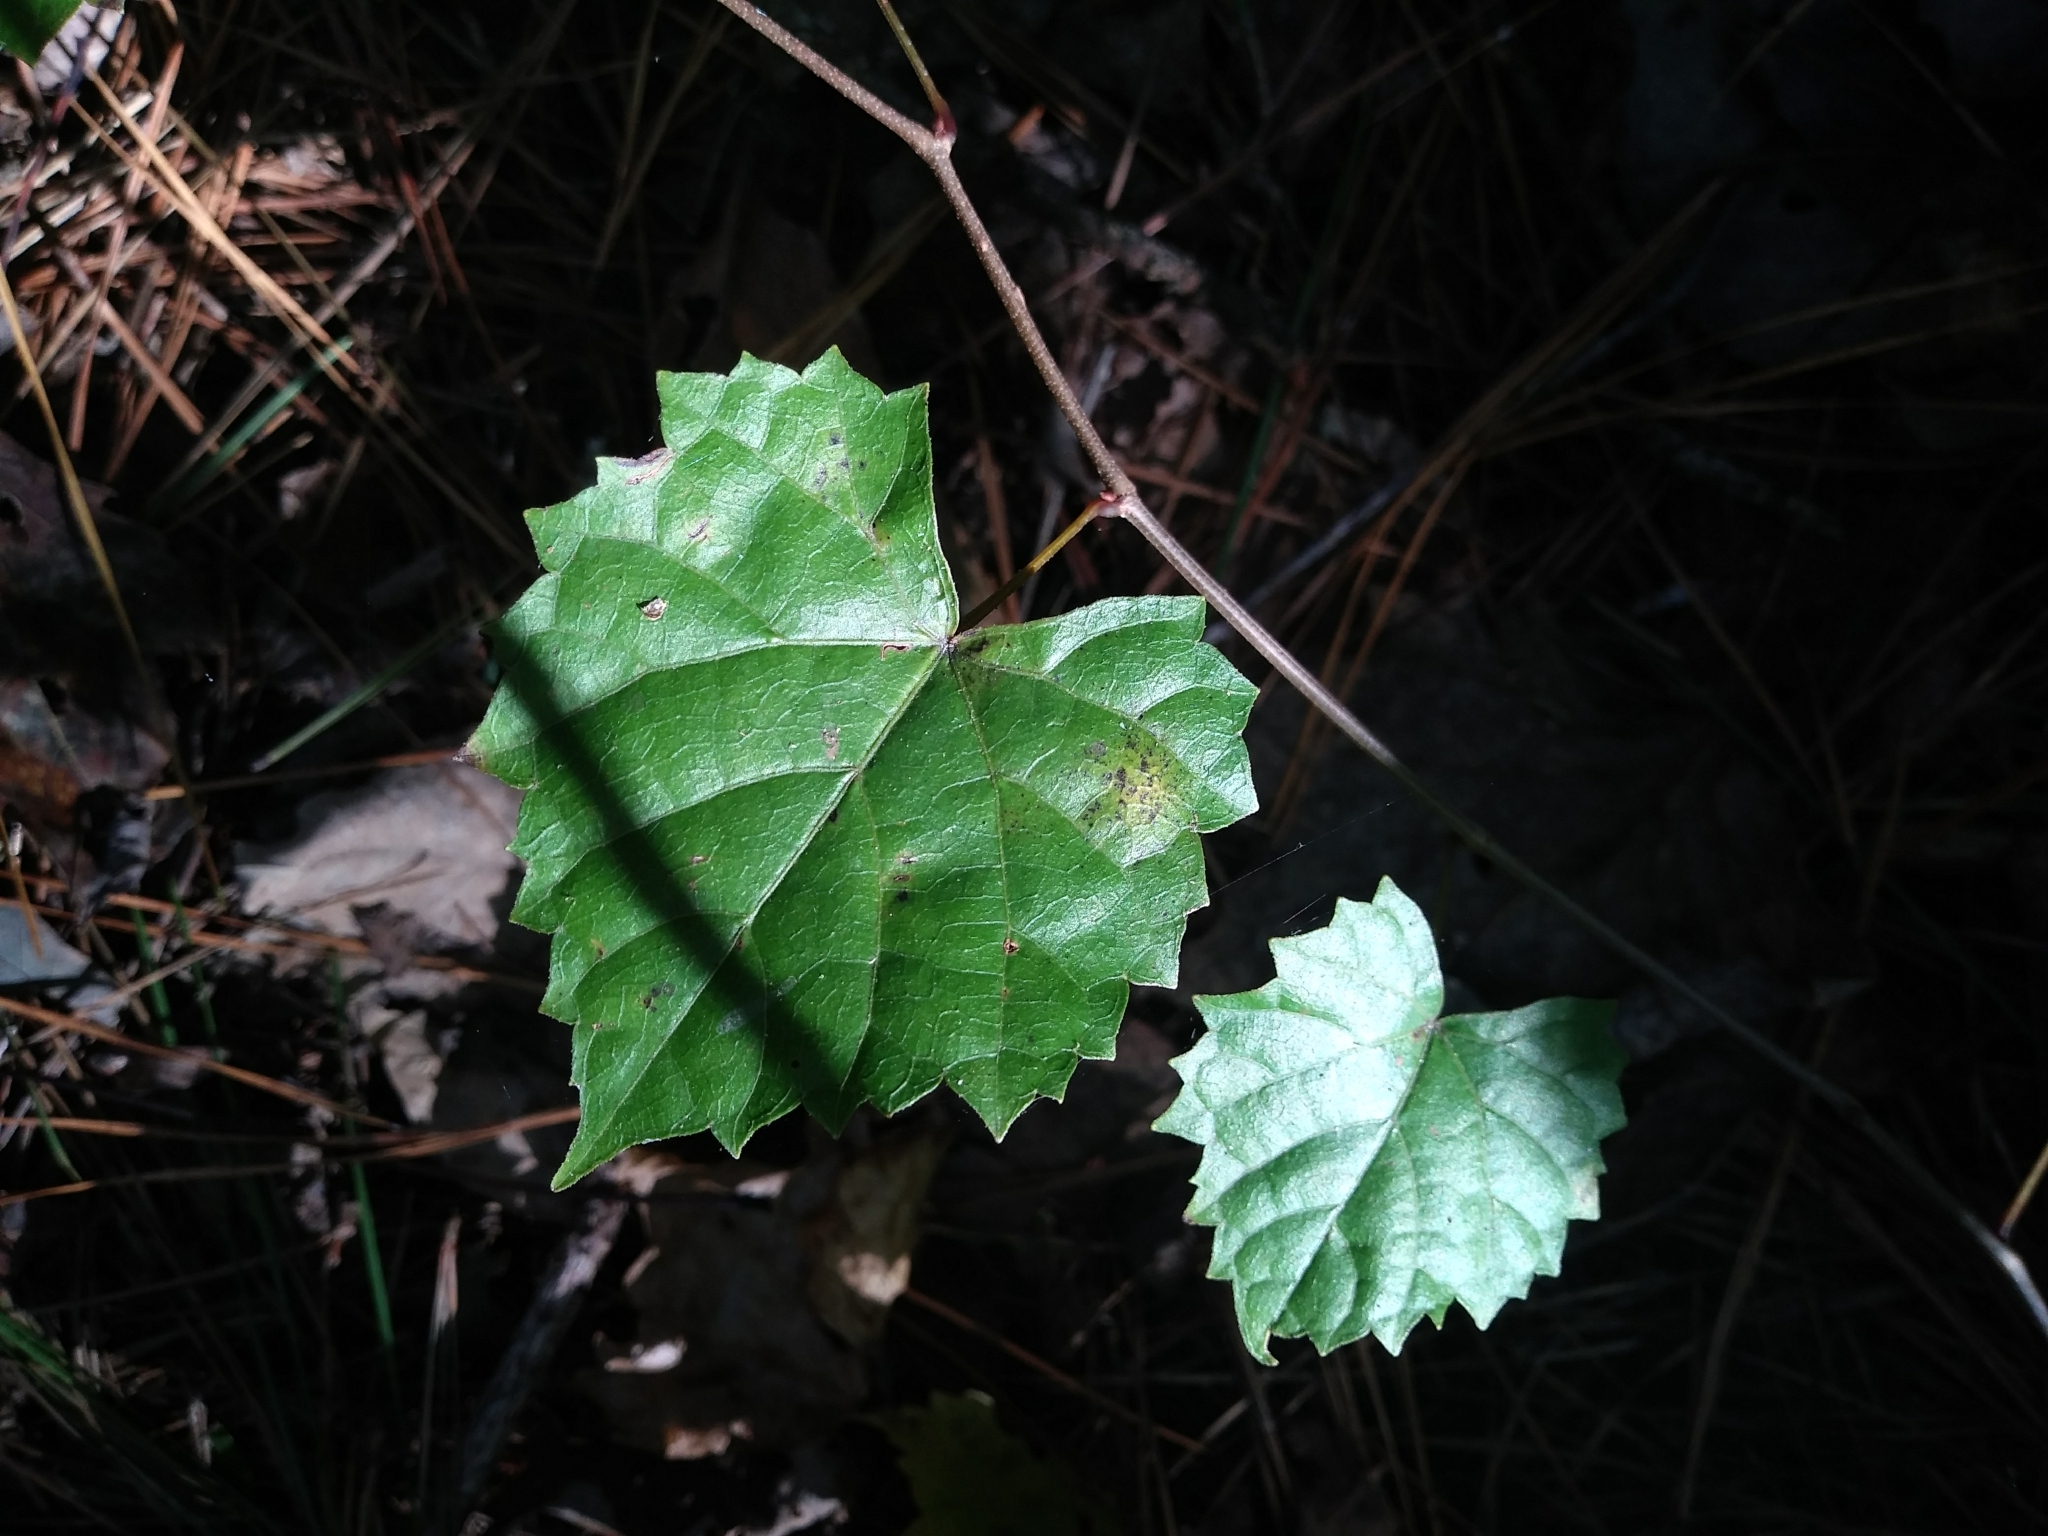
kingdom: Plantae
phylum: Tracheophyta
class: Magnoliopsida
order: Vitales
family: Vitaceae
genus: Vitis
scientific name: Vitis rotundifolia
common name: Muscadine grape
